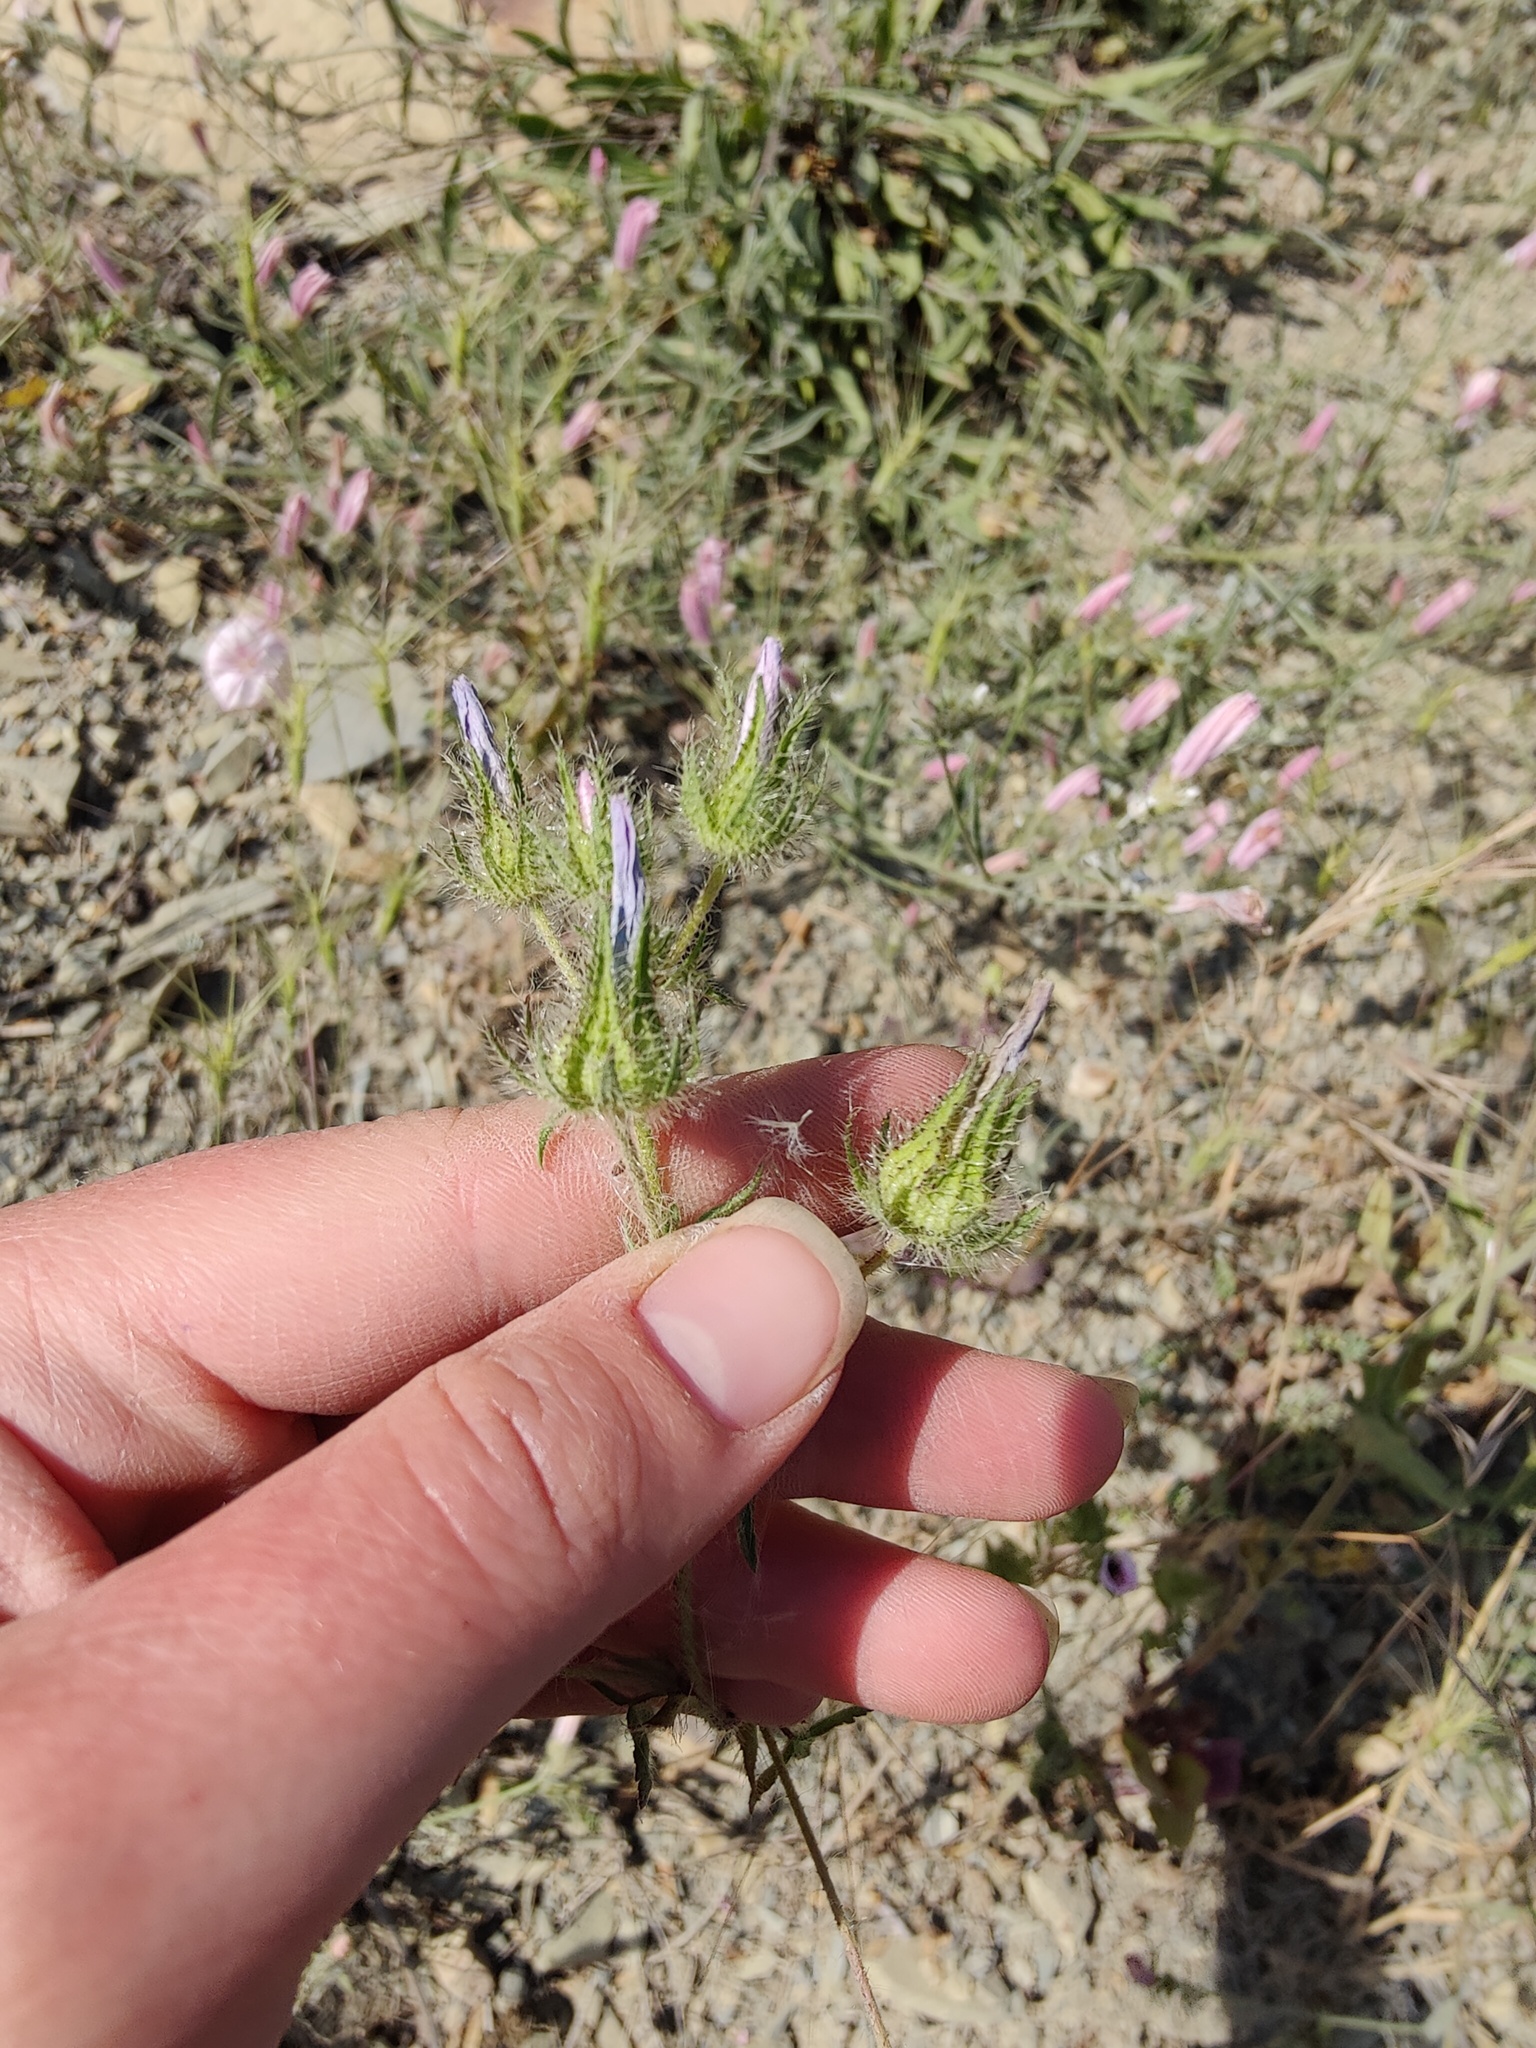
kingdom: Plantae
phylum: Tracheophyta
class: Magnoliopsida
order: Malvales
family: Malvaceae
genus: Althaea
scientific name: Althaea hirsuta
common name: Rough marsh-mallow
